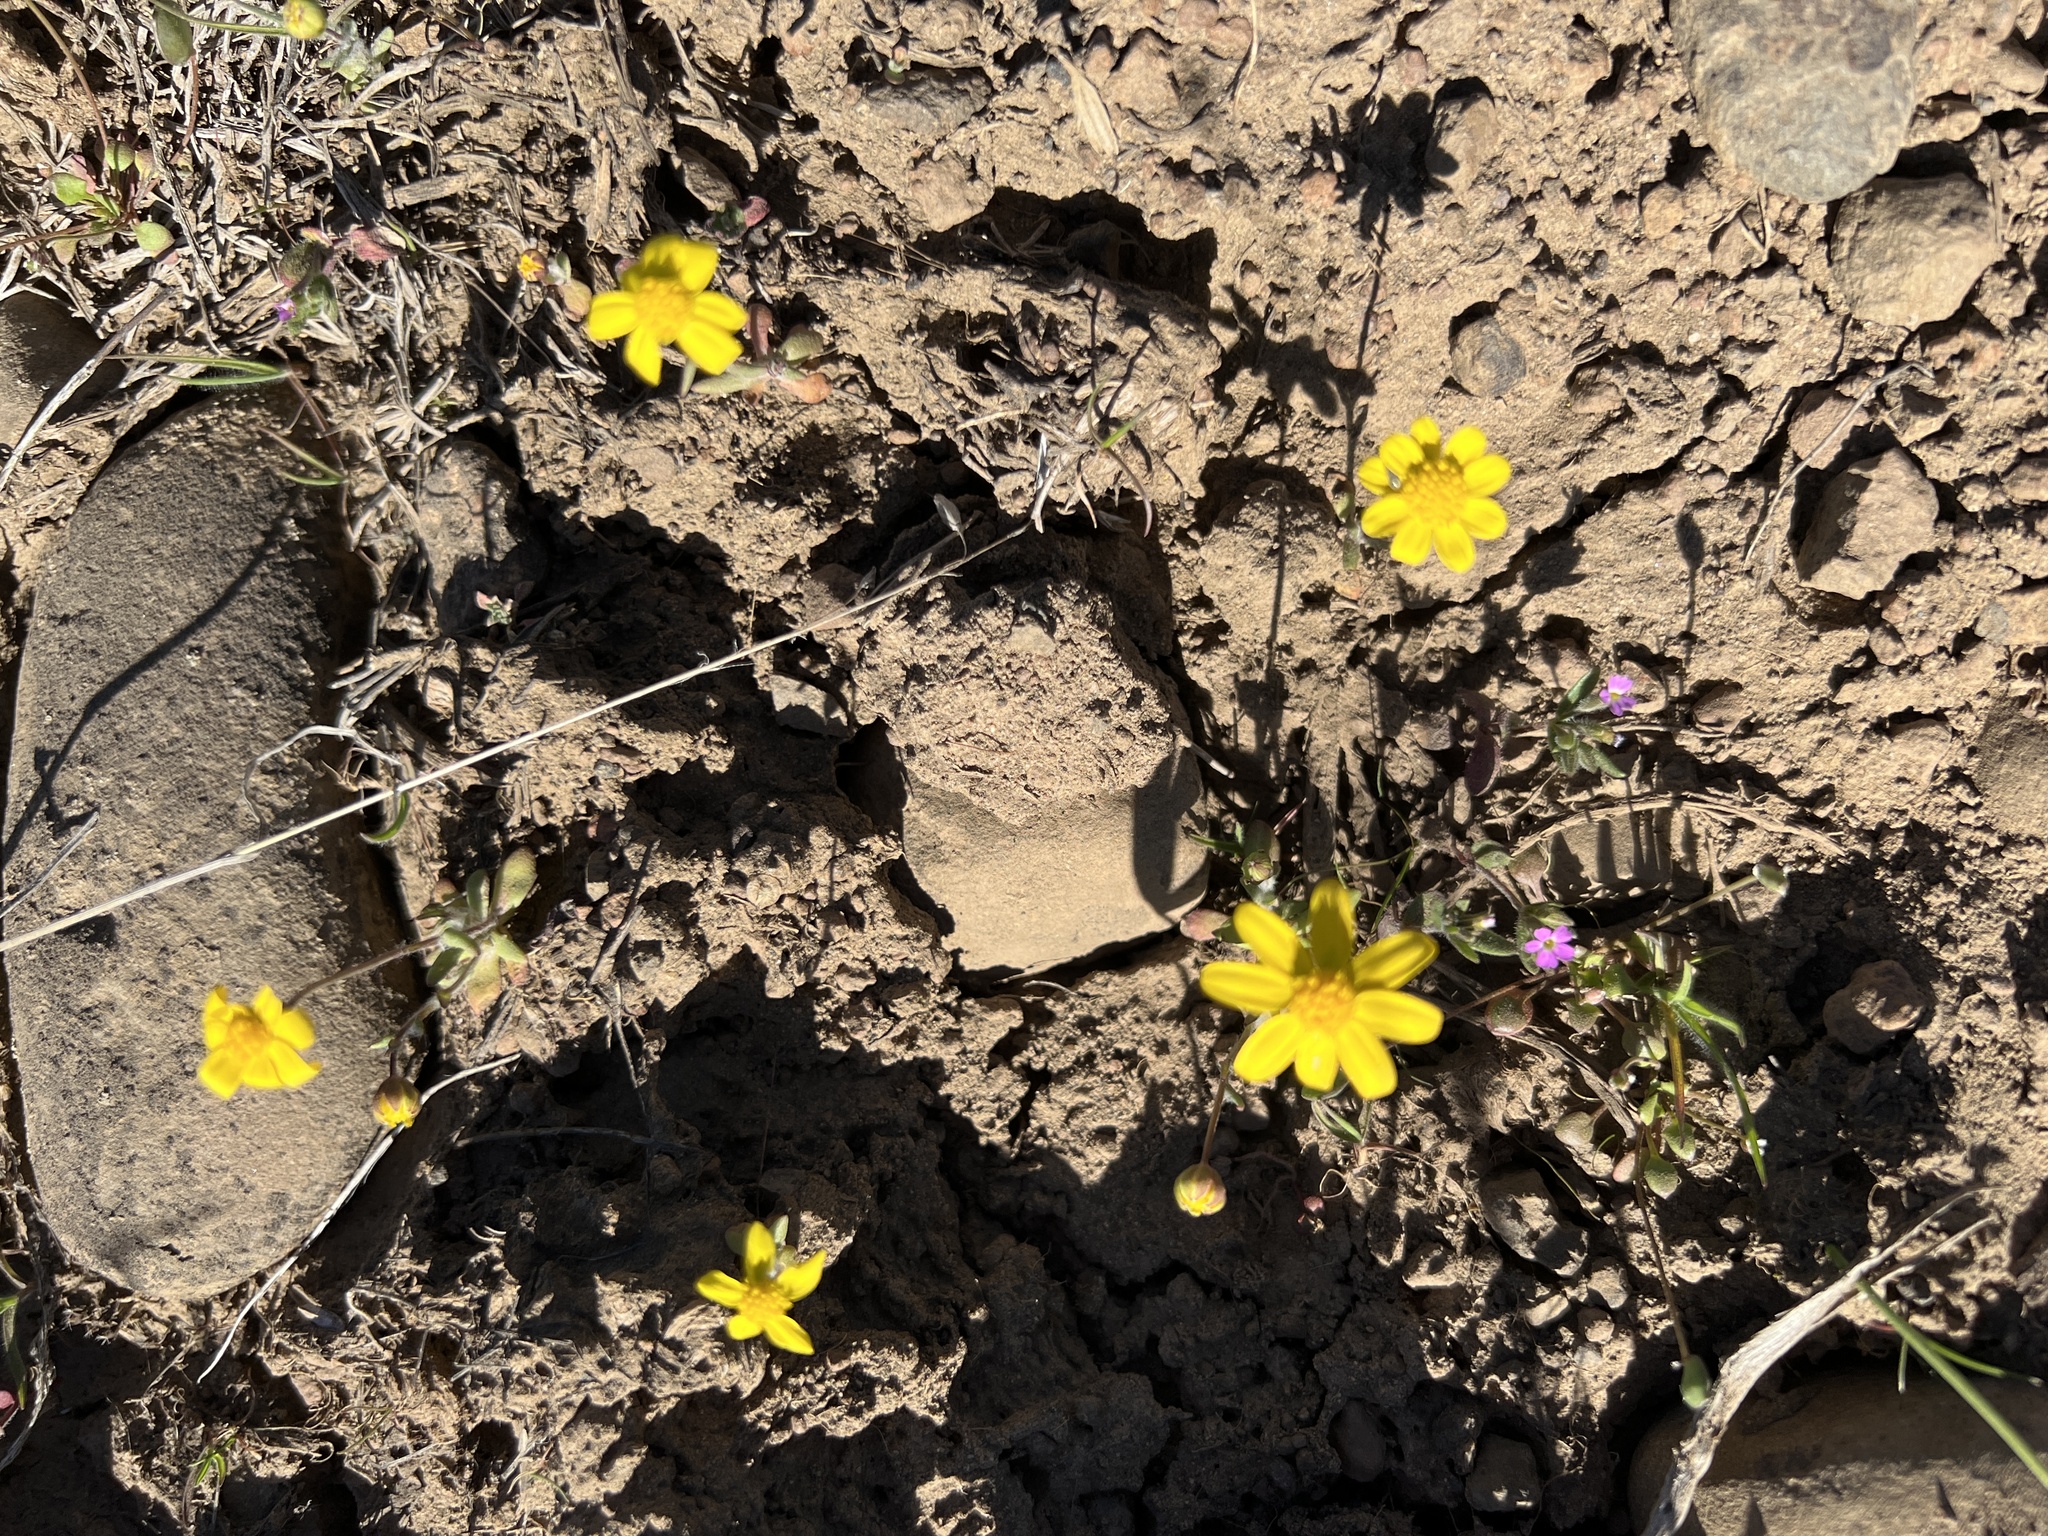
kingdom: Plantae
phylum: Tracheophyta
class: Magnoliopsida
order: Asterales
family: Asteraceae
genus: Crocidium
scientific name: Crocidium multicaule
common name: Common spring gold
